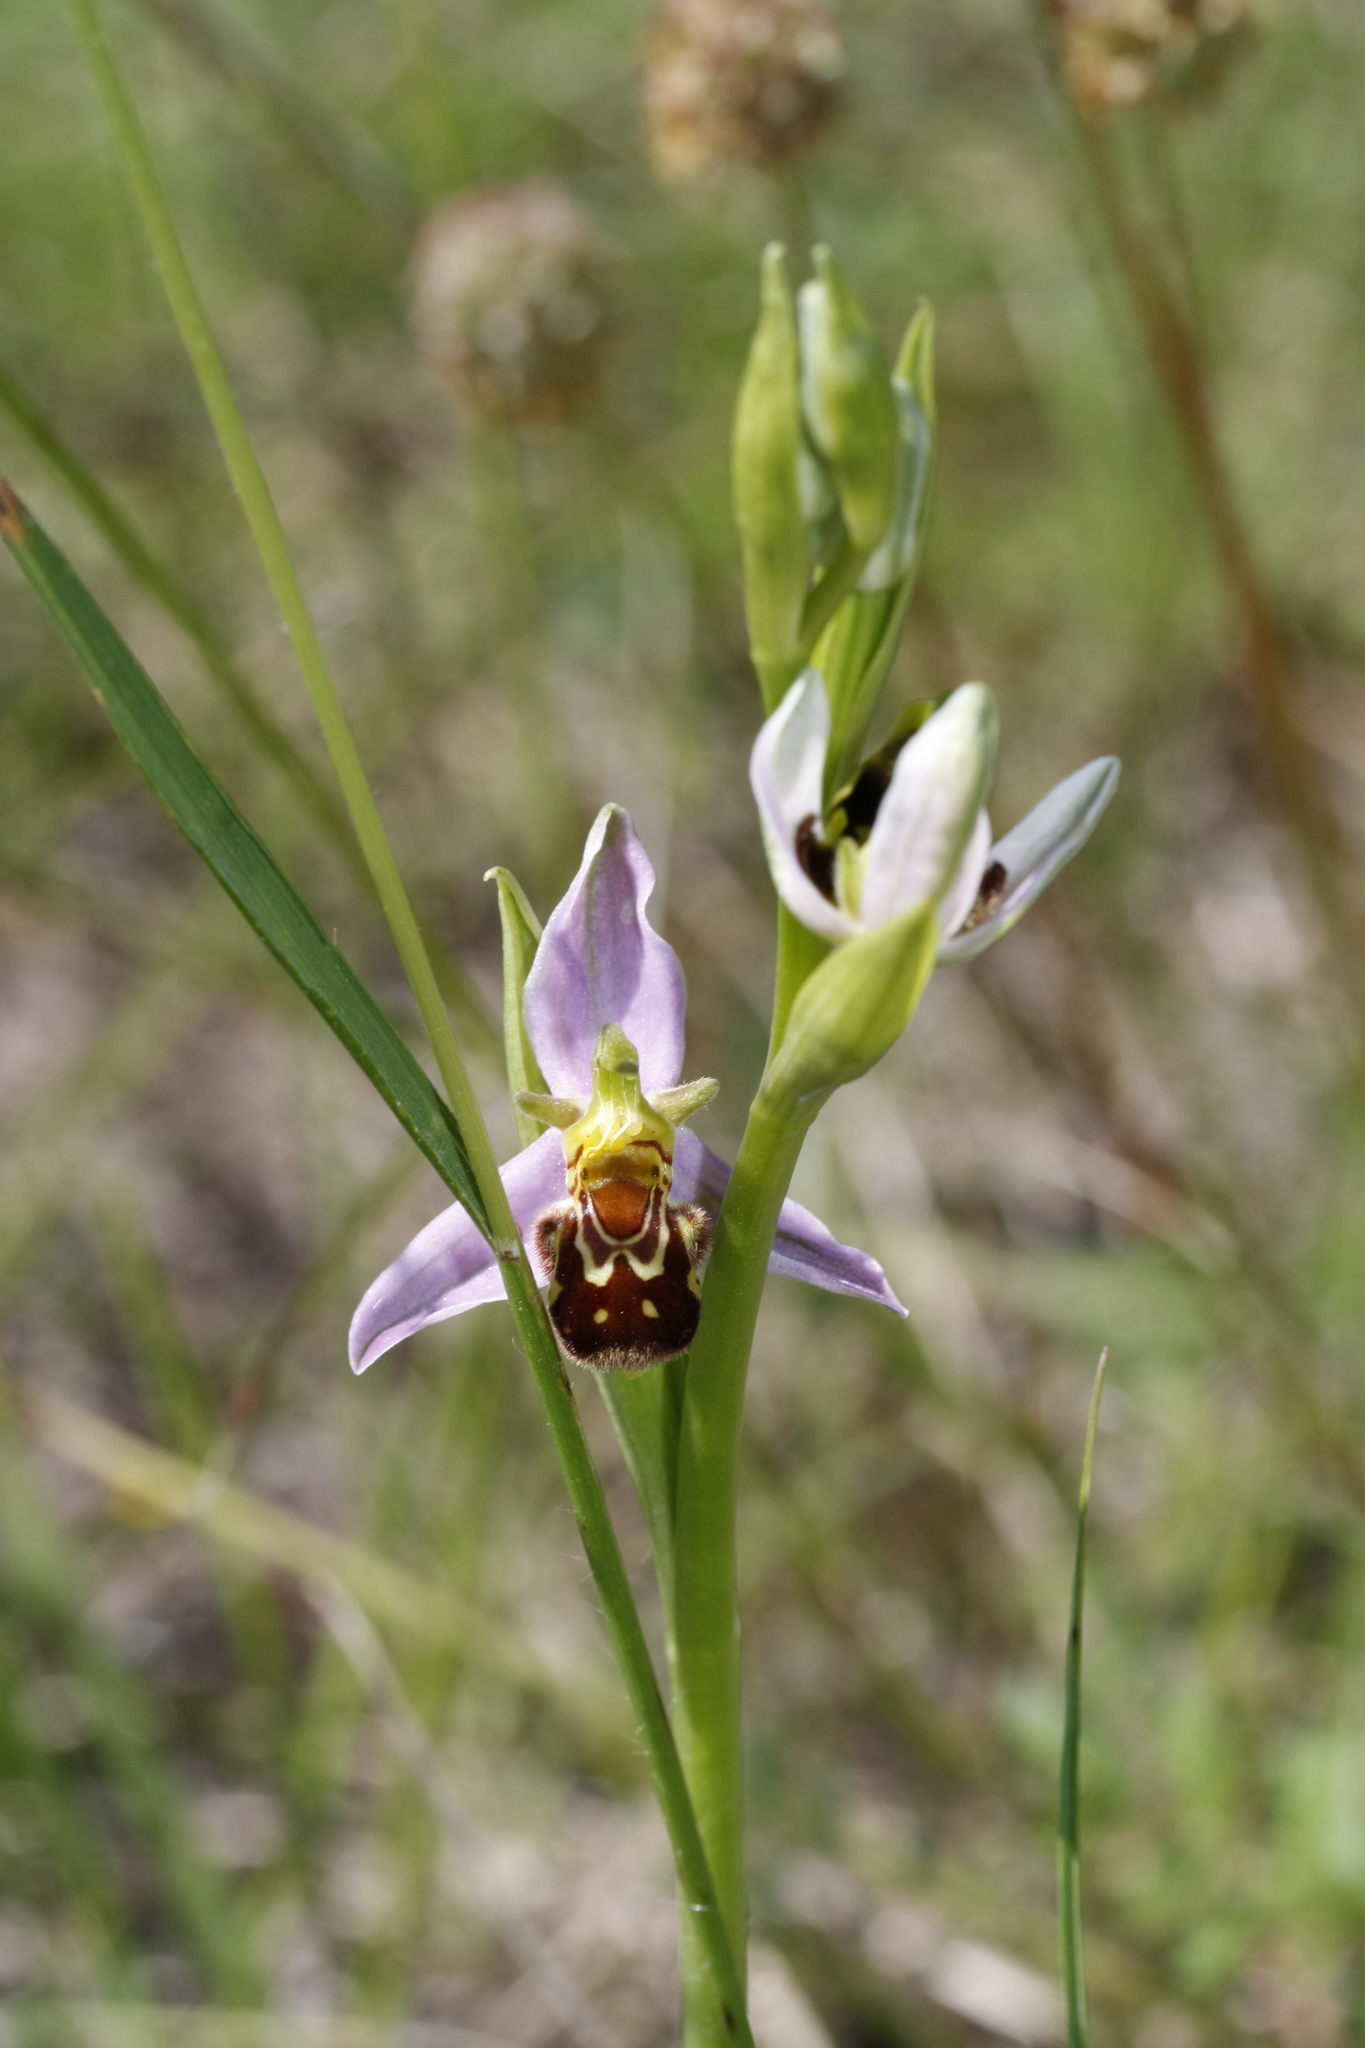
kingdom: Plantae
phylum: Tracheophyta
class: Liliopsida
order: Asparagales
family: Orchidaceae
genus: Ophrys
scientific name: Ophrys apifera
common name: Bee orchid
